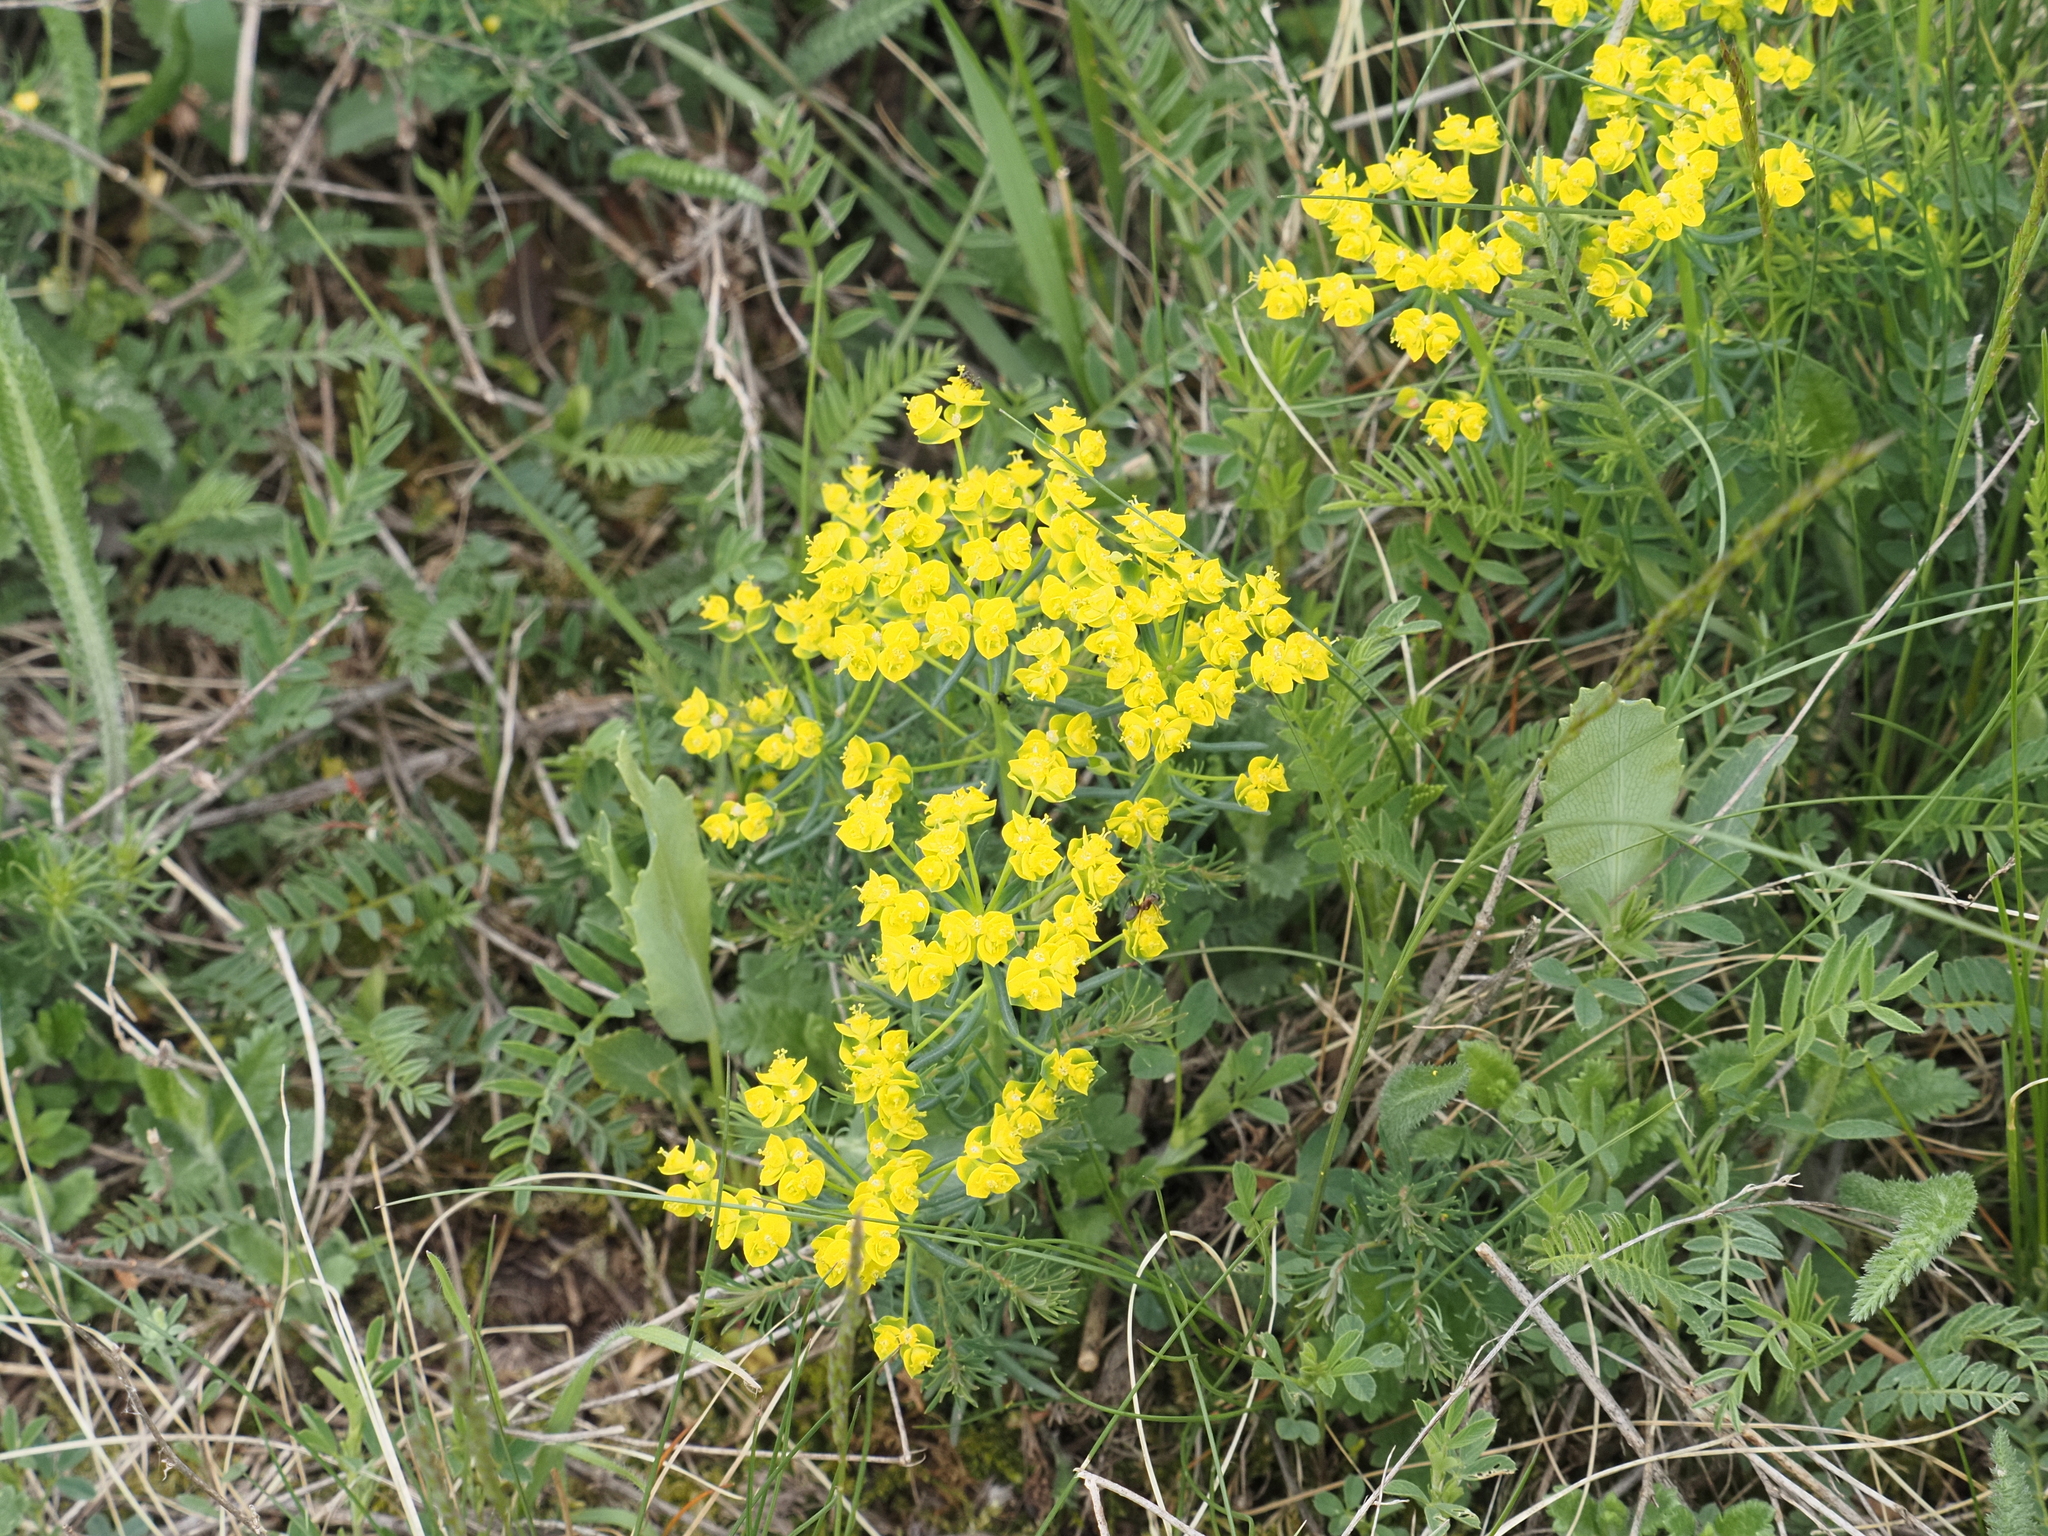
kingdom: Plantae
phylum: Tracheophyta
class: Magnoliopsida
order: Malpighiales
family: Euphorbiaceae
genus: Euphorbia
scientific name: Euphorbia cyparissias
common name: Cypress spurge
